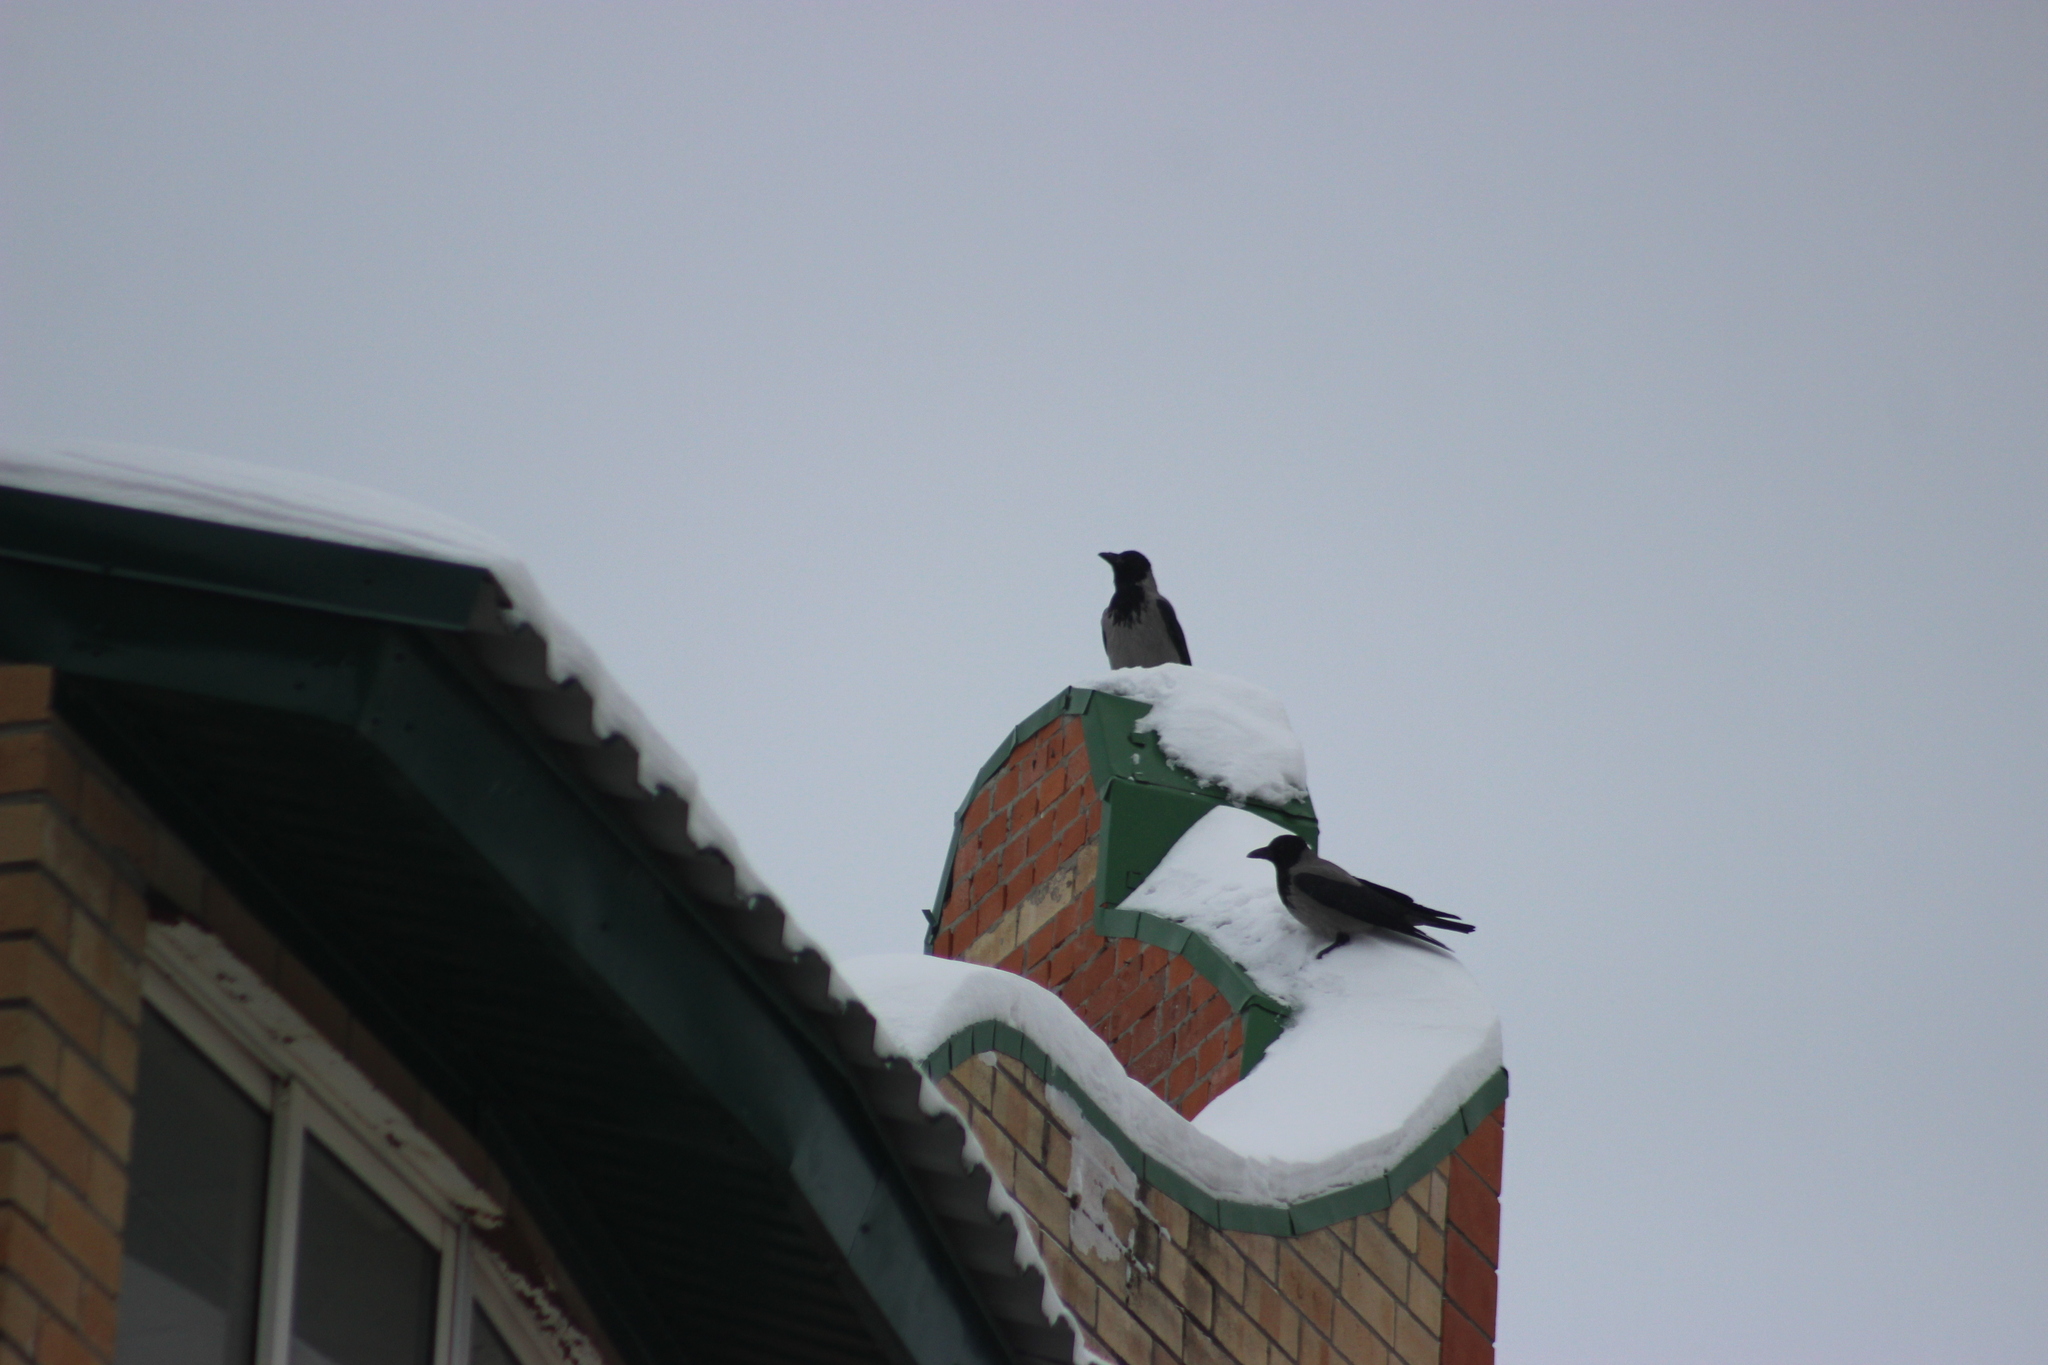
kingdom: Animalia
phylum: Chordata
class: Aves
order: Passeriformes
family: Corvidae
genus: Corvus
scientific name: Corvus cornix
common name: Hooded crow
